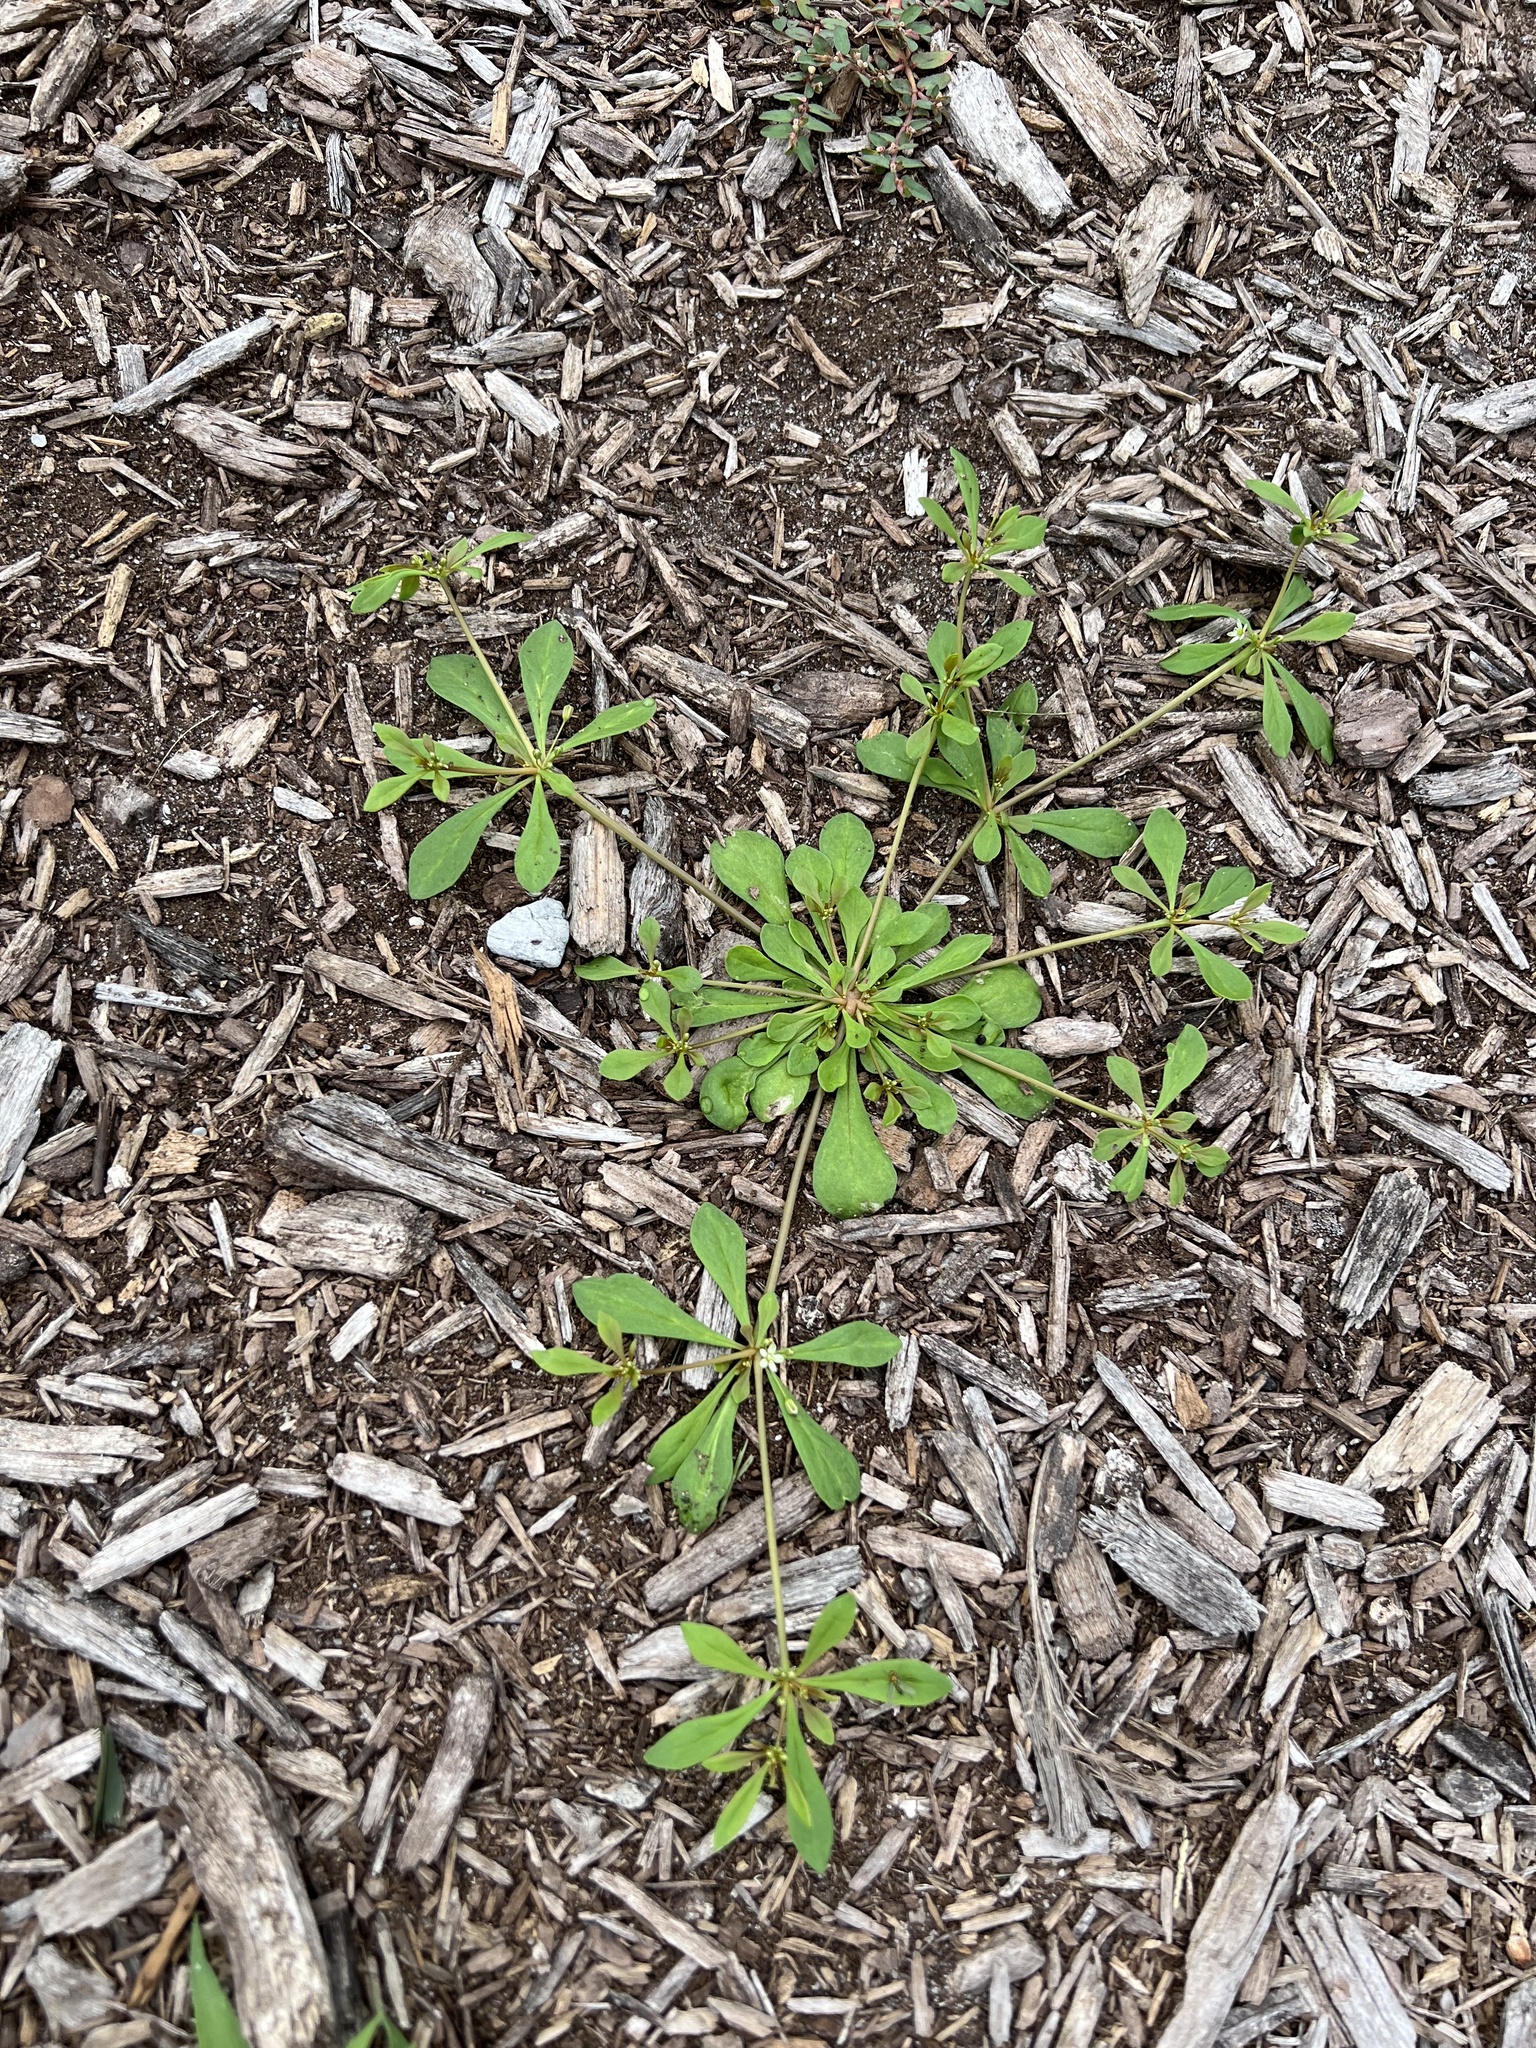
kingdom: Plantae
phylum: Tracheophyta
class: Magnoliopsida
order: Caryophyllales
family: Molluginaceae
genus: Mollugo
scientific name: Mollugo verticillata
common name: Green carpetweed
